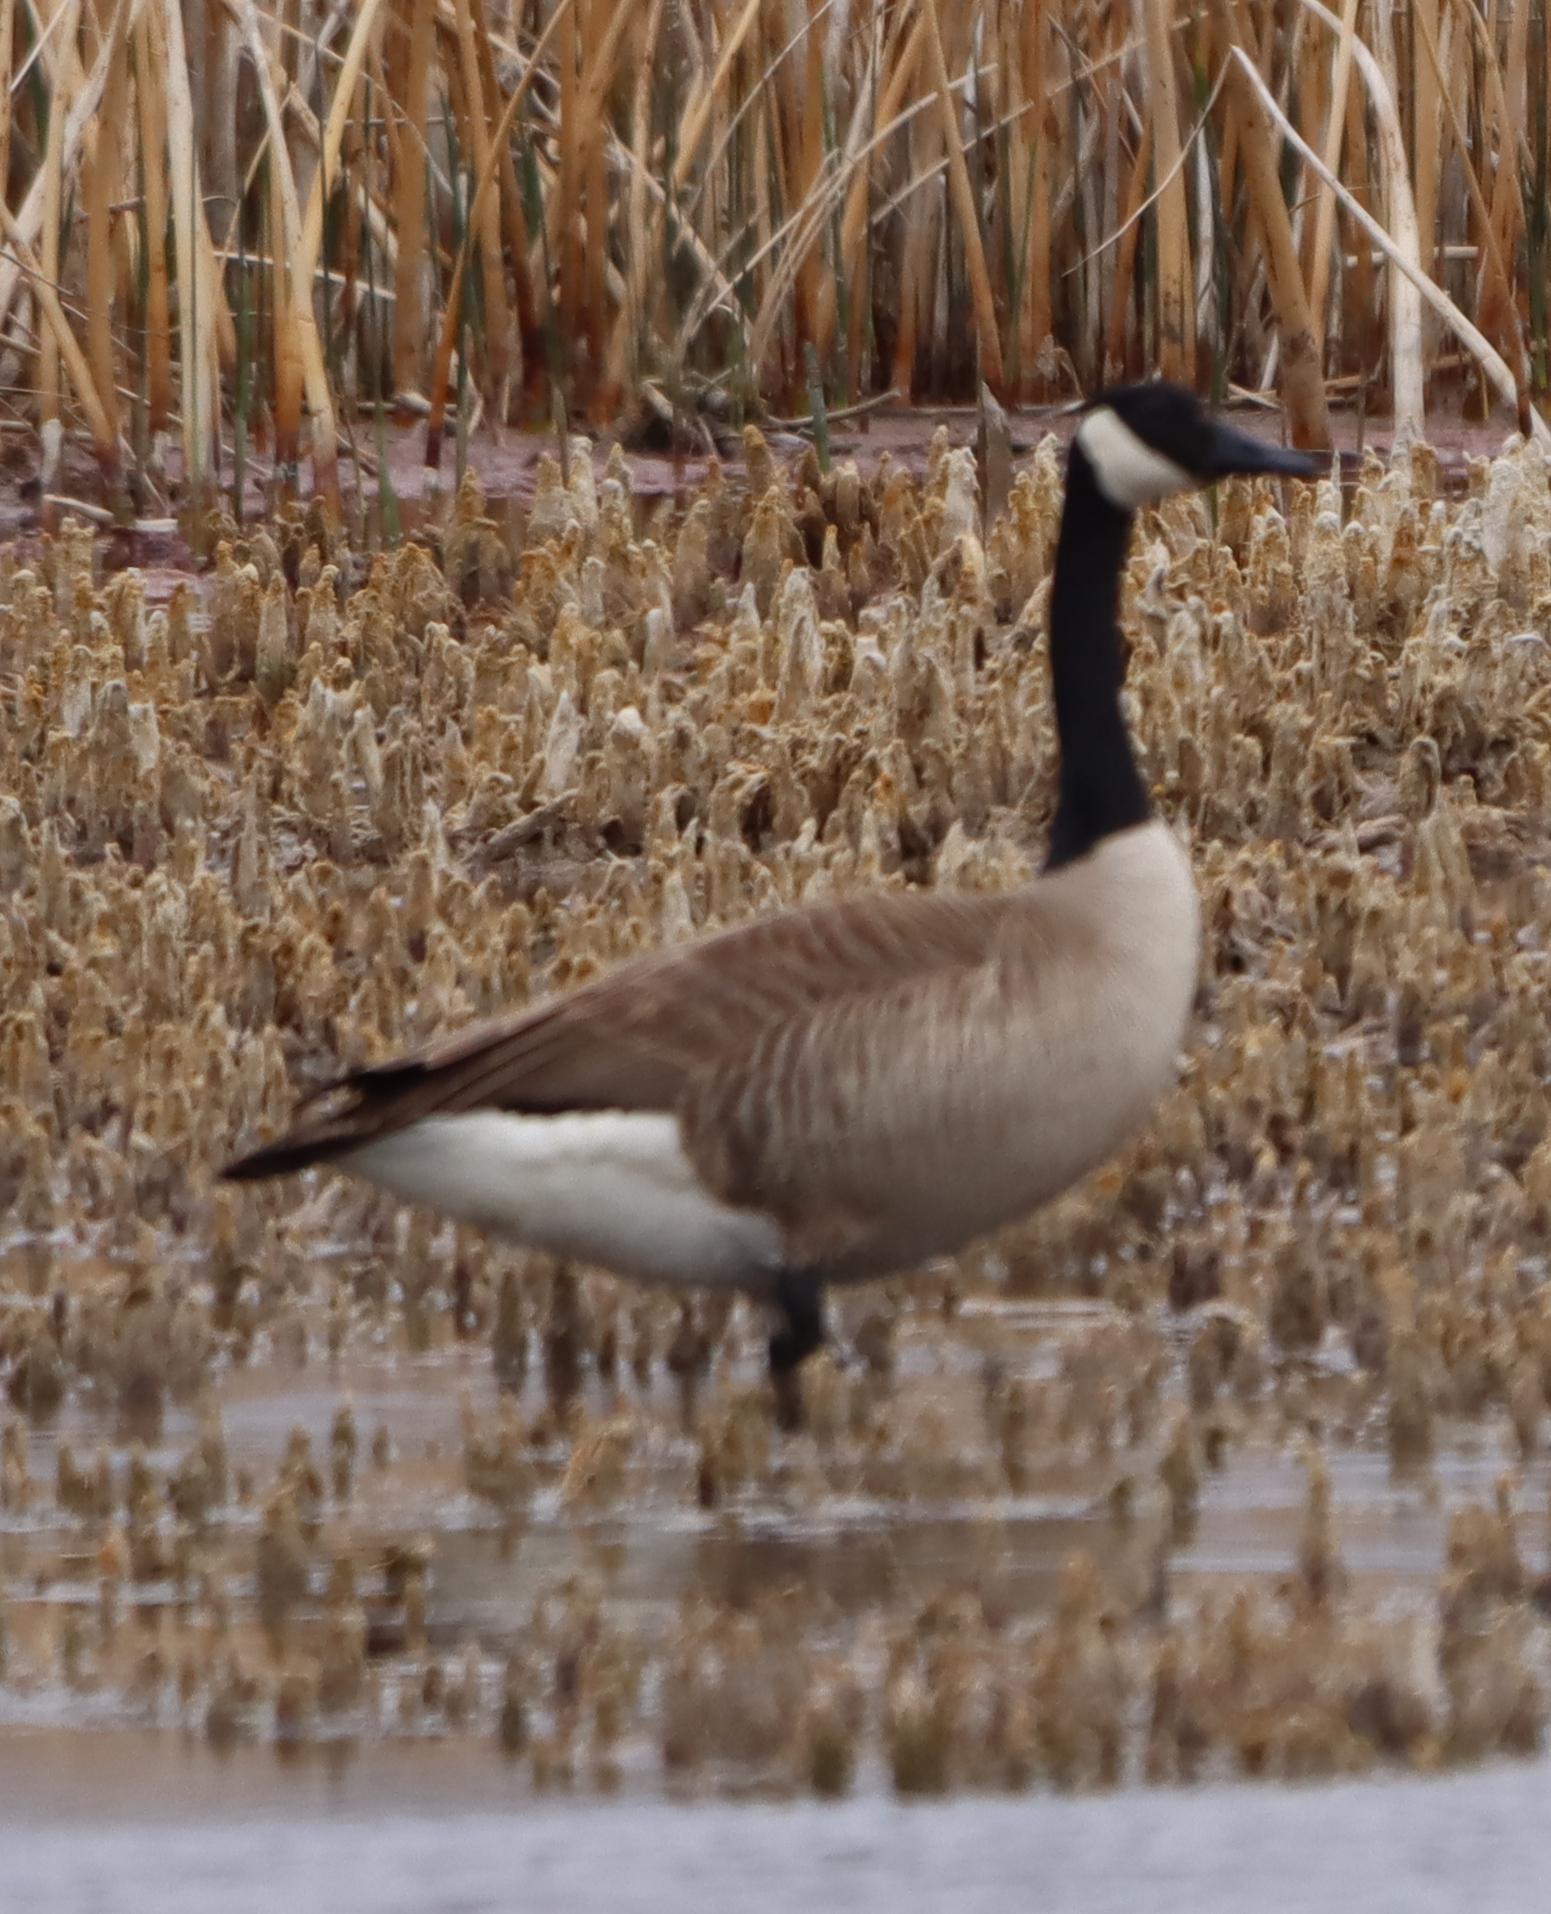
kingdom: Animalia
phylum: Chordata
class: Aves
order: Anseriformes
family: Anatidae
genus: Branta
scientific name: Branta canadensis
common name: Canada goose
